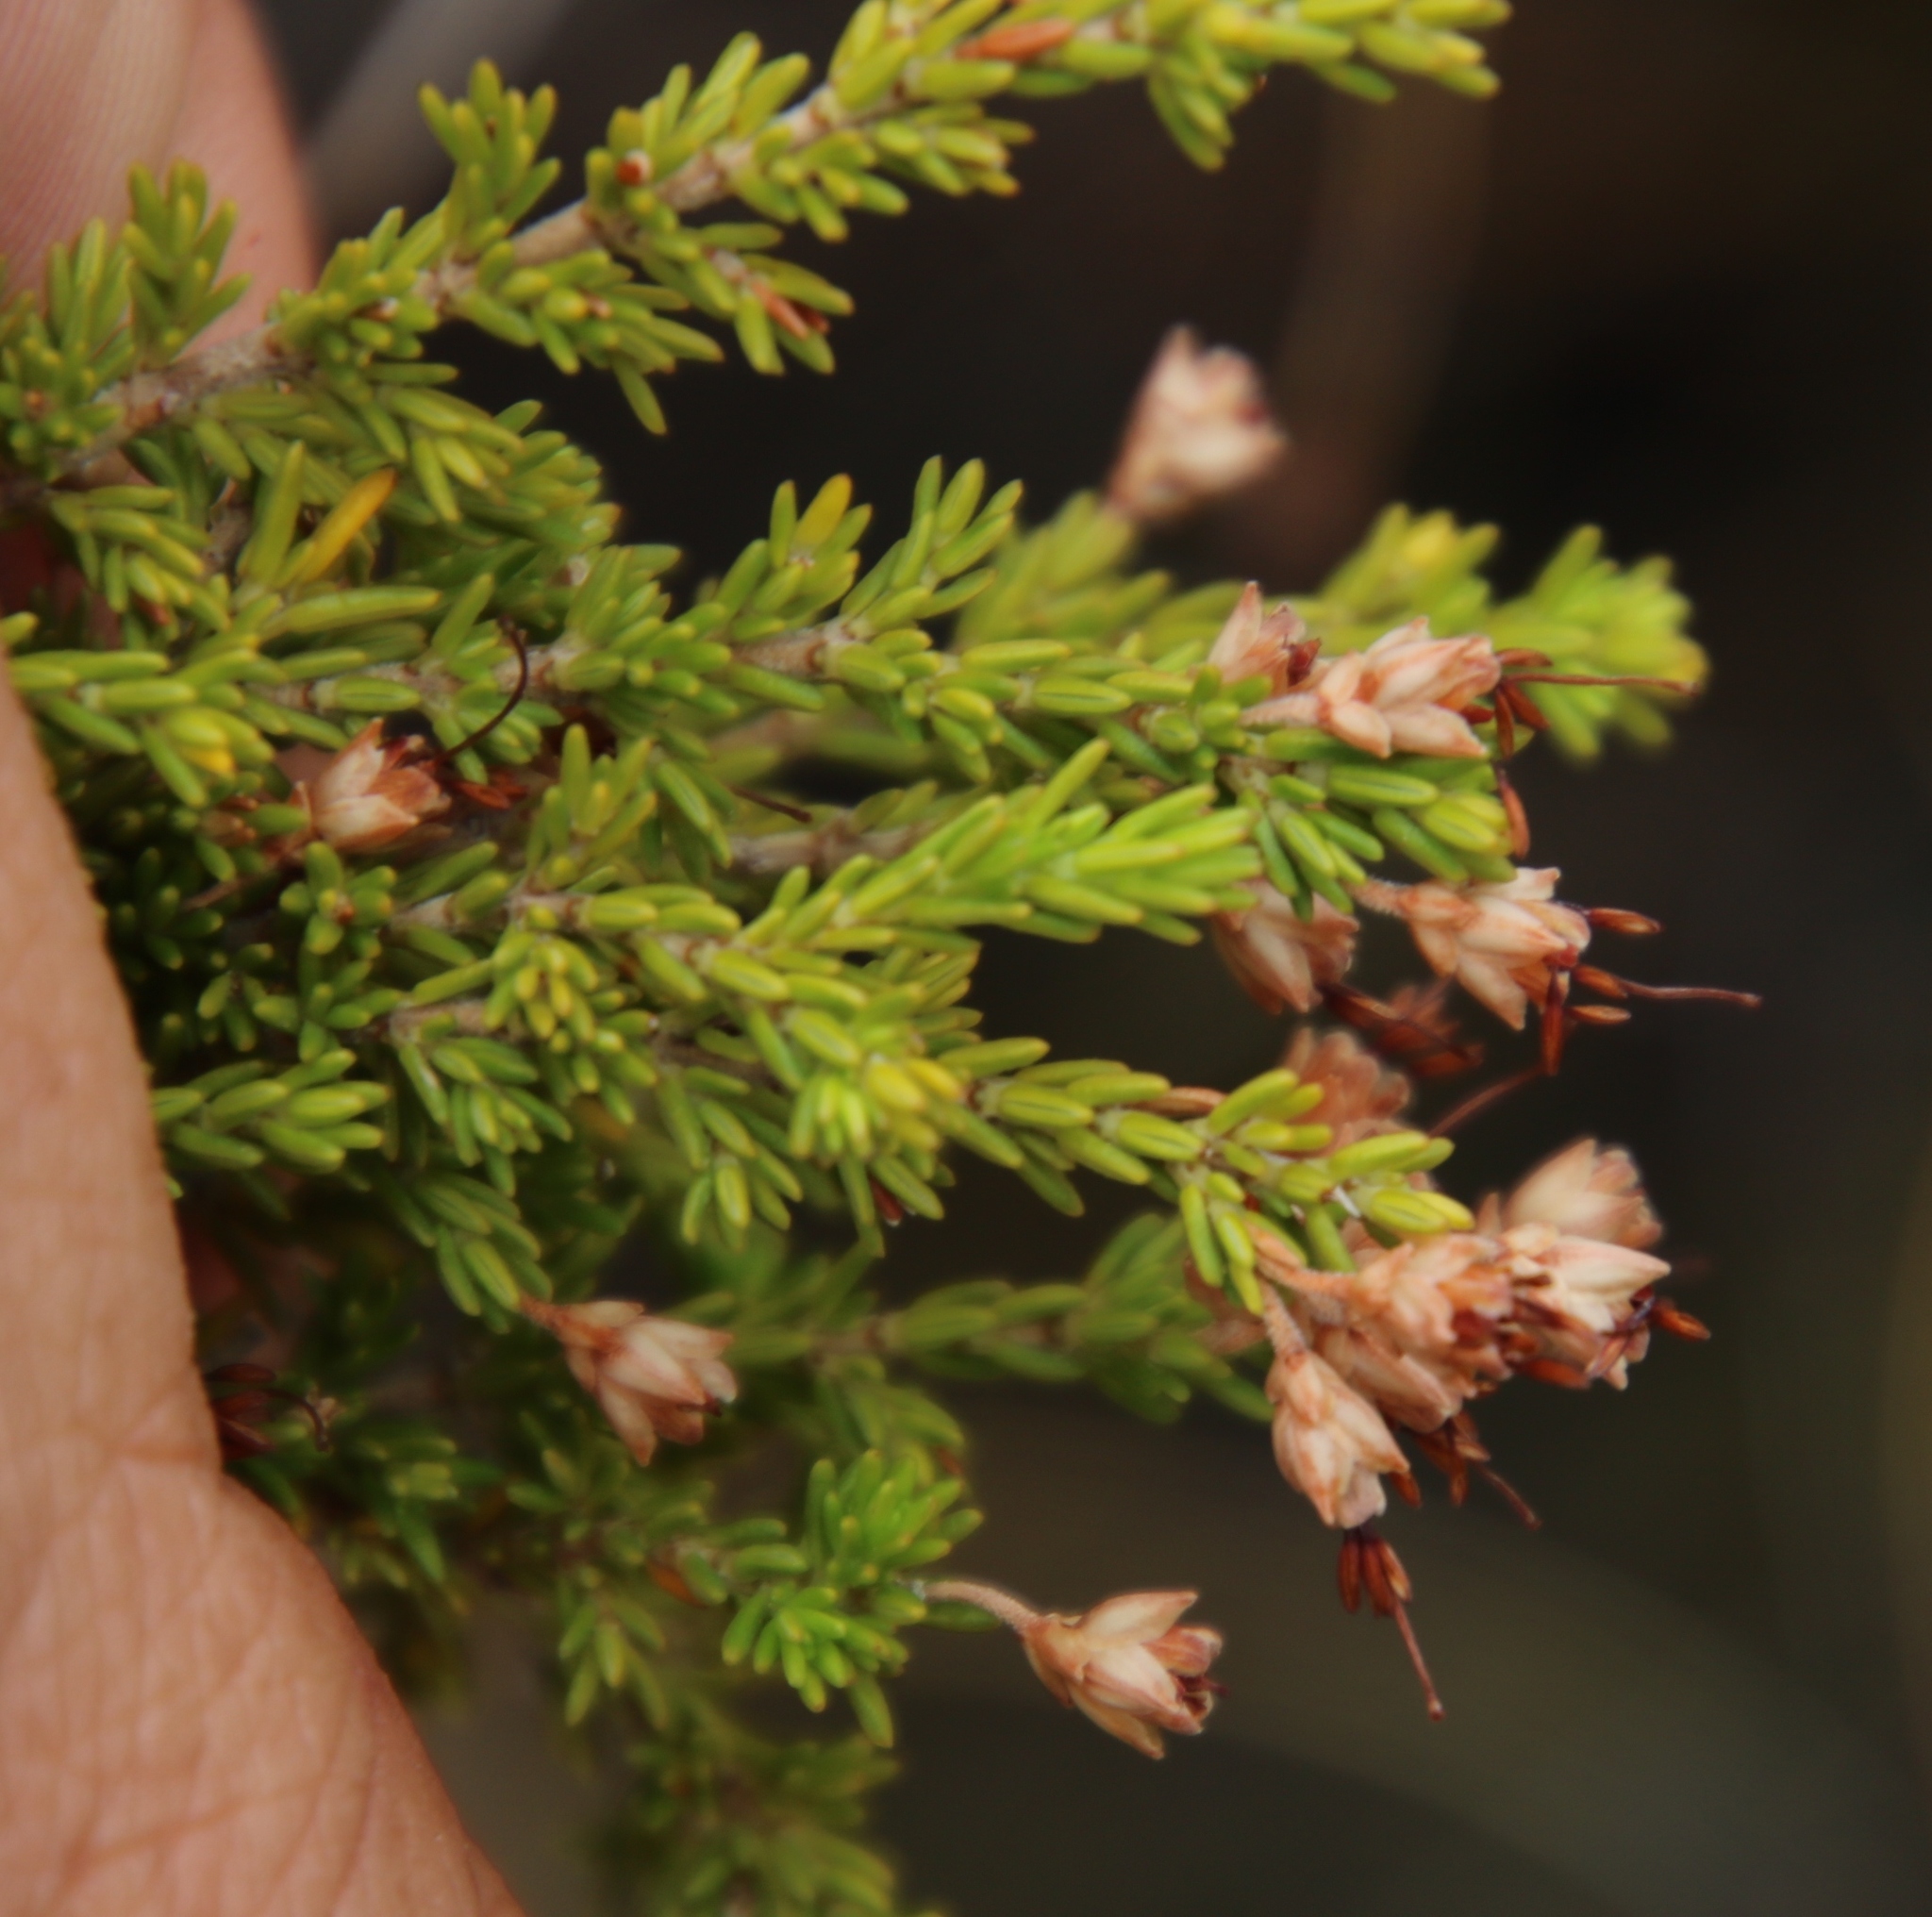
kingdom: Plantae
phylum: Tracheophyta
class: Magnoliopsida
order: Ericales
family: Ericaceae
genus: Erica
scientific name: Erica imbricata
